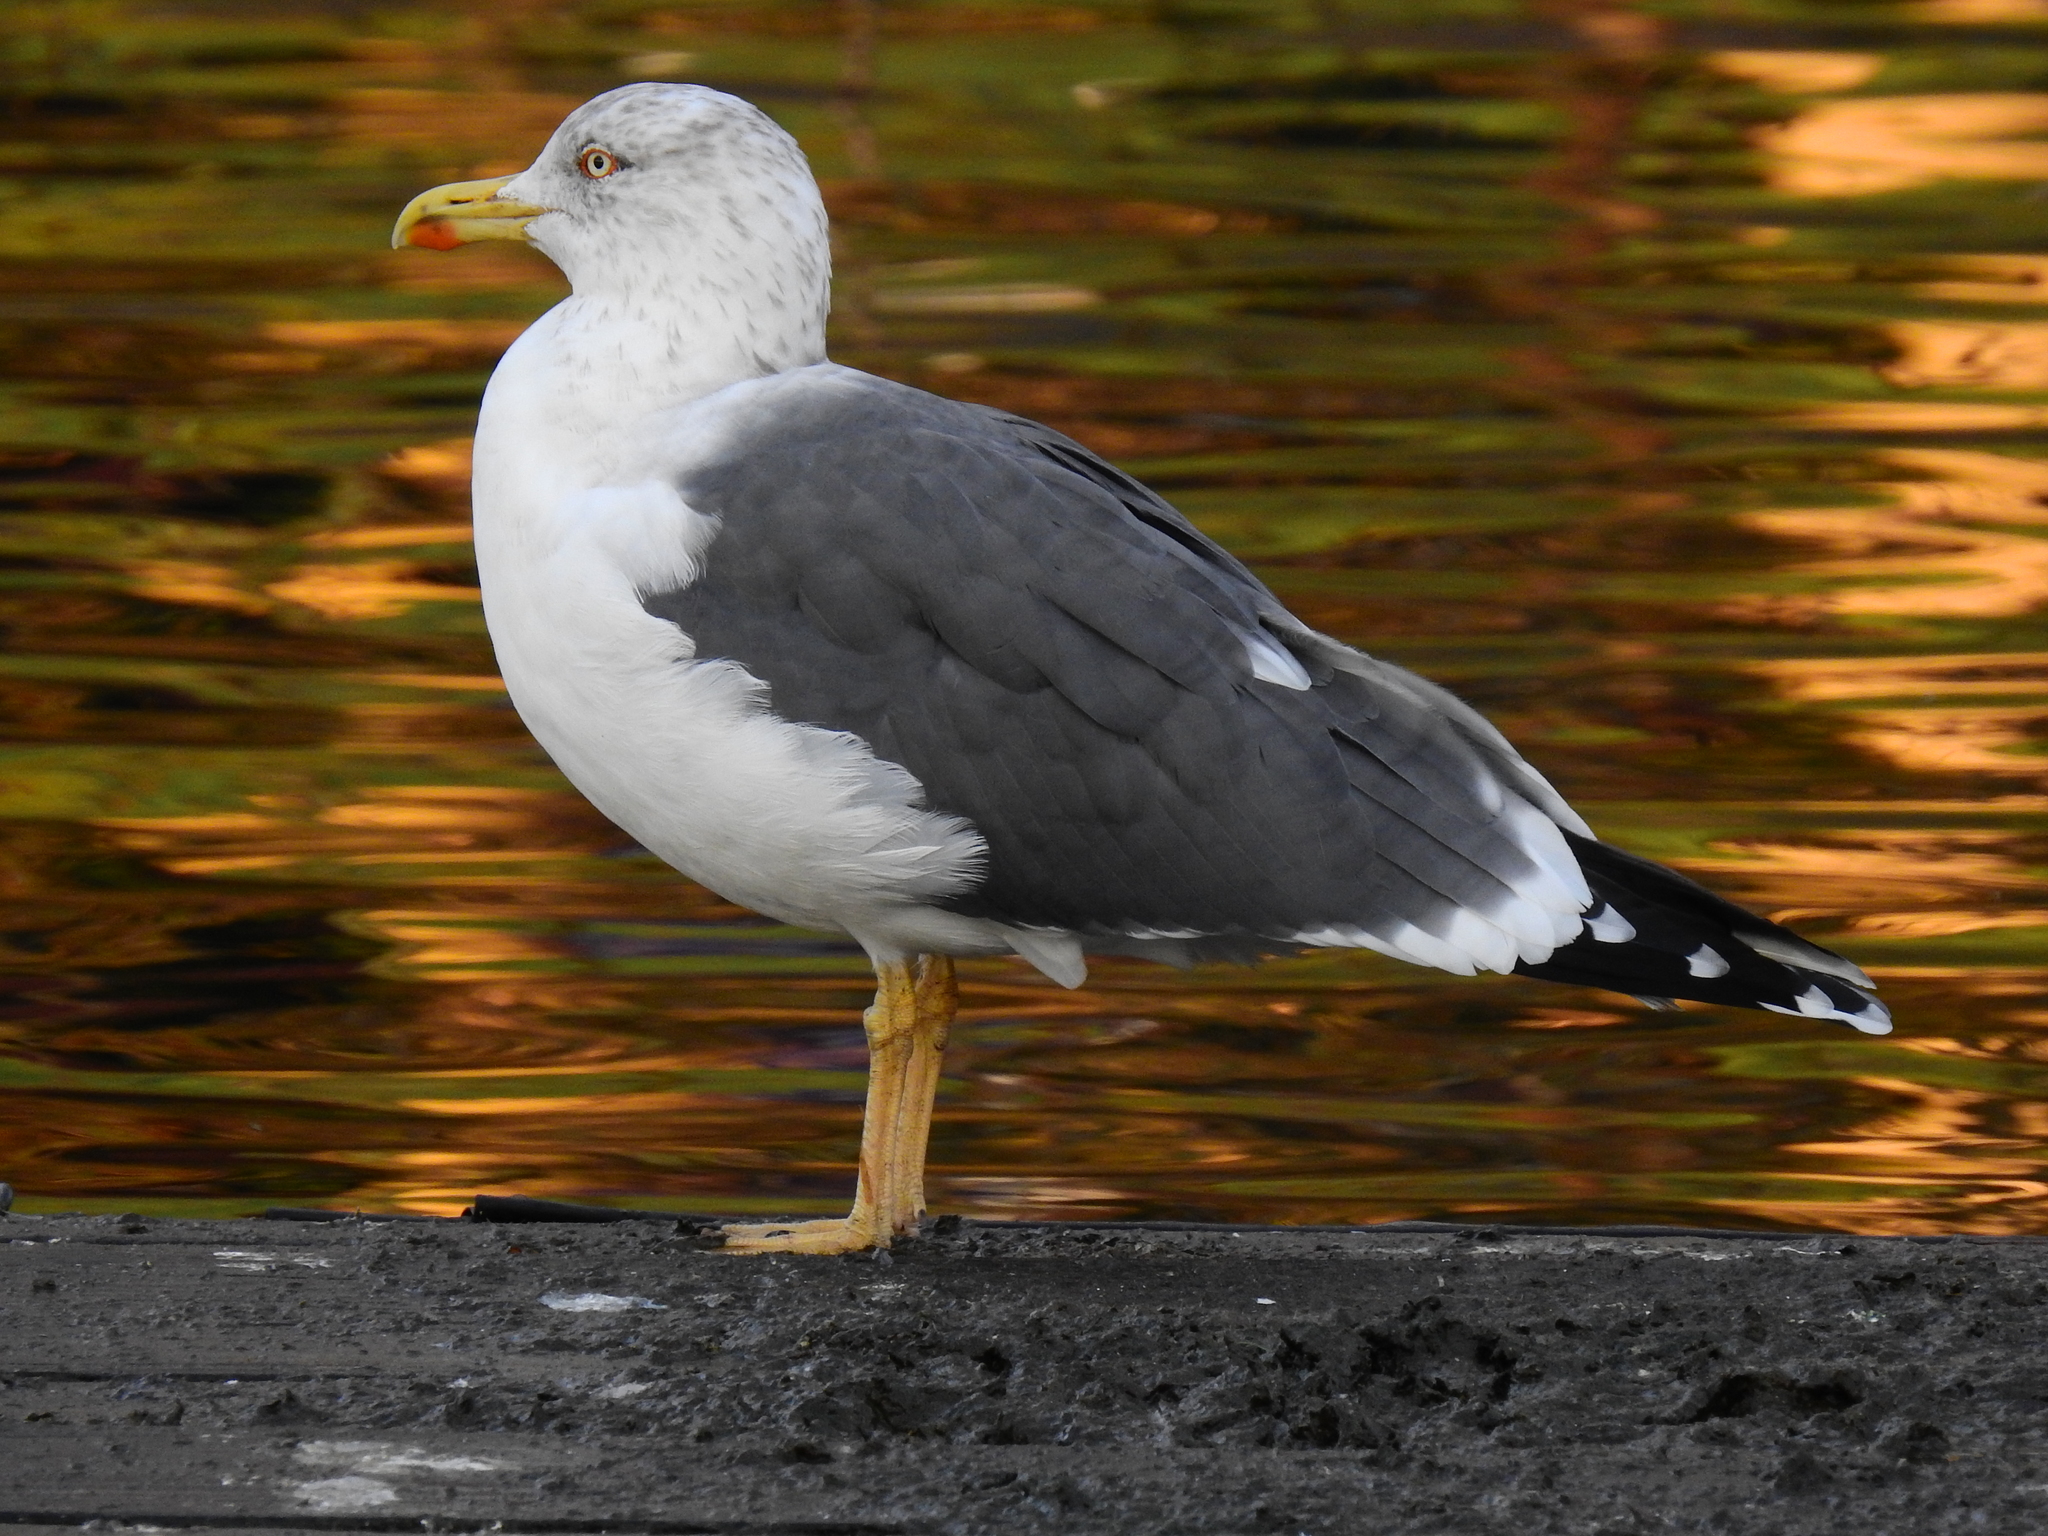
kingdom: Animalia
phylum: Chordata
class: Aves
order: Charadriiformes
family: Laridae
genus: Larus
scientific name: Larus fuscus
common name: Lesser black-backed gull
